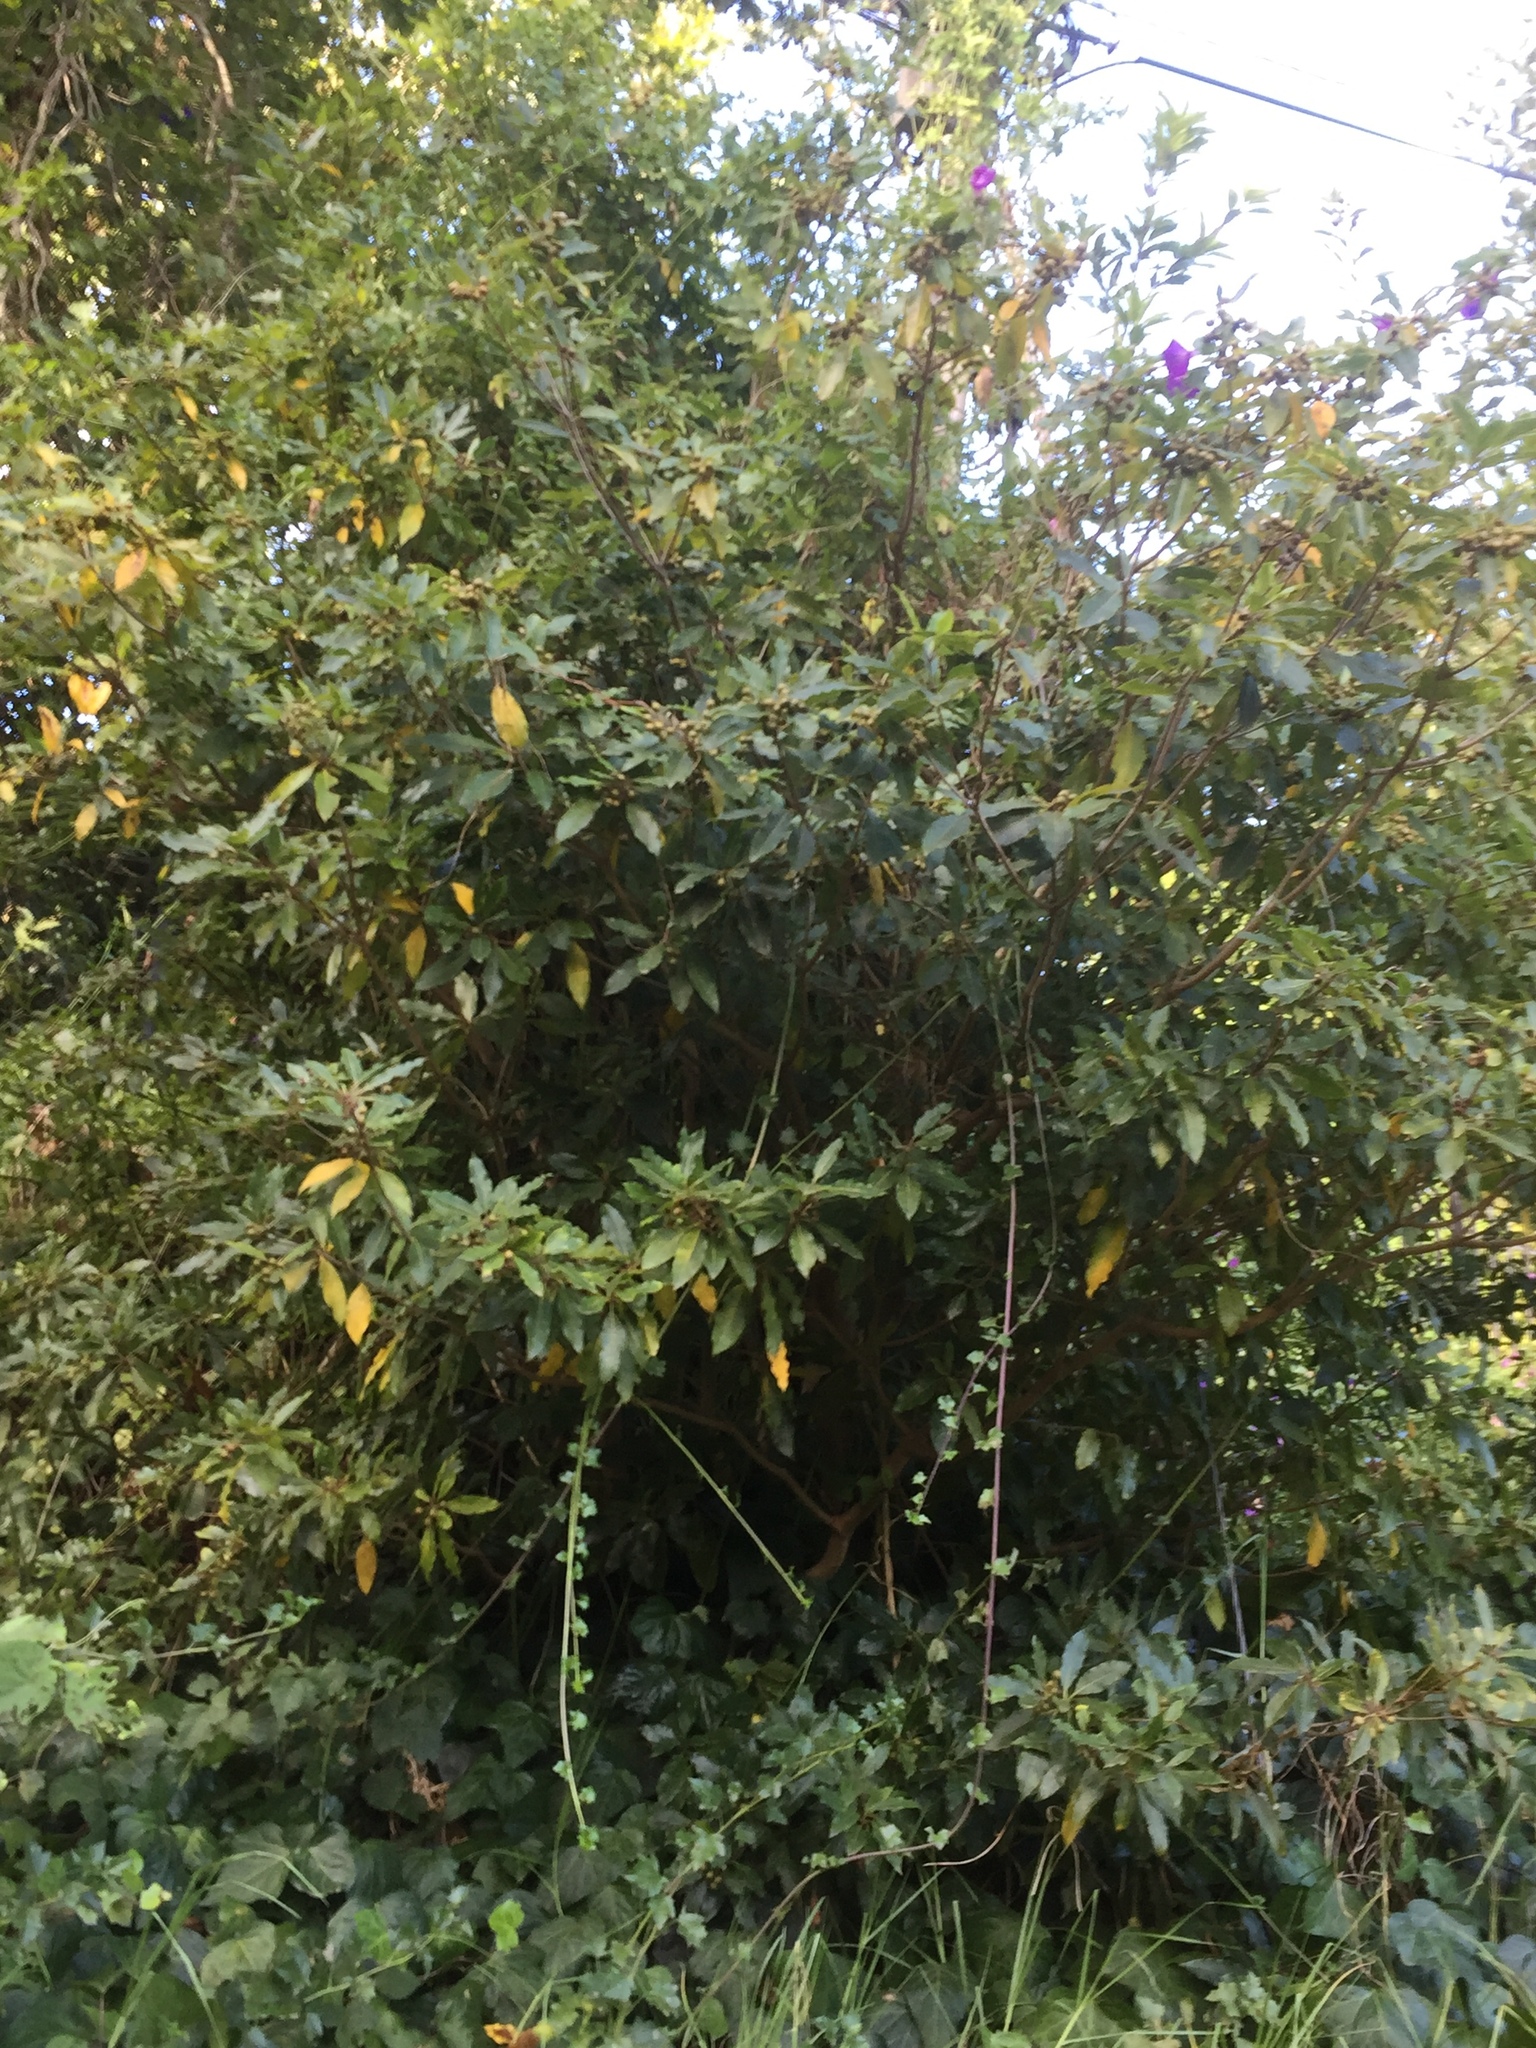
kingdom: Plantae
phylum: Tracheophyta
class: Magnoliopsida
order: Apiales
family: Pittosporaceae
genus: Pittosporum
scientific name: Pittosporum undulatum
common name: Australian cheesewood
